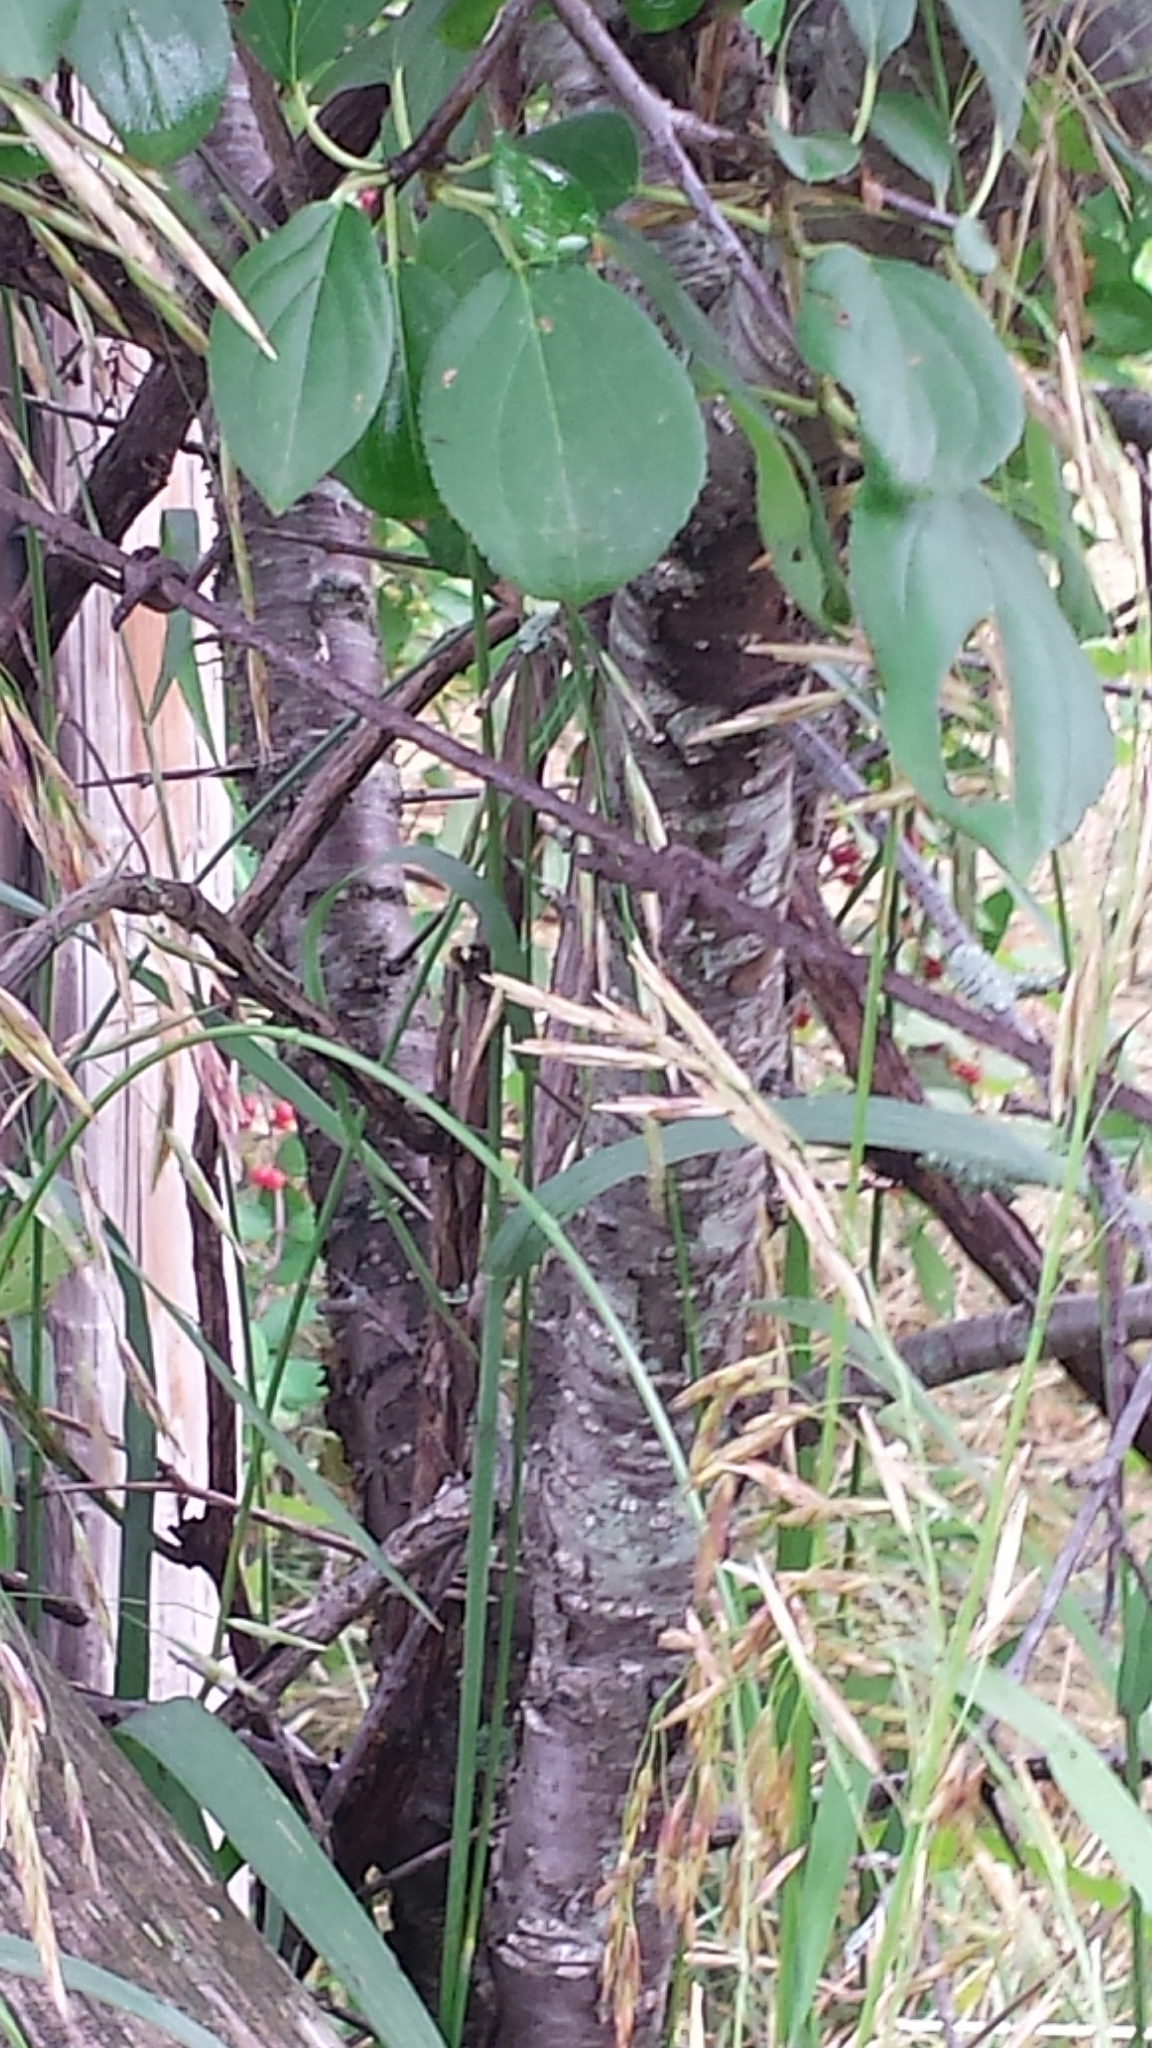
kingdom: Plantae
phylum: Tracheophyta
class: Magnoliopsida
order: Rosales
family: Rhamnaceae
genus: Rhamnus
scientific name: Rhamnus cathartica
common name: Common buckthorn
